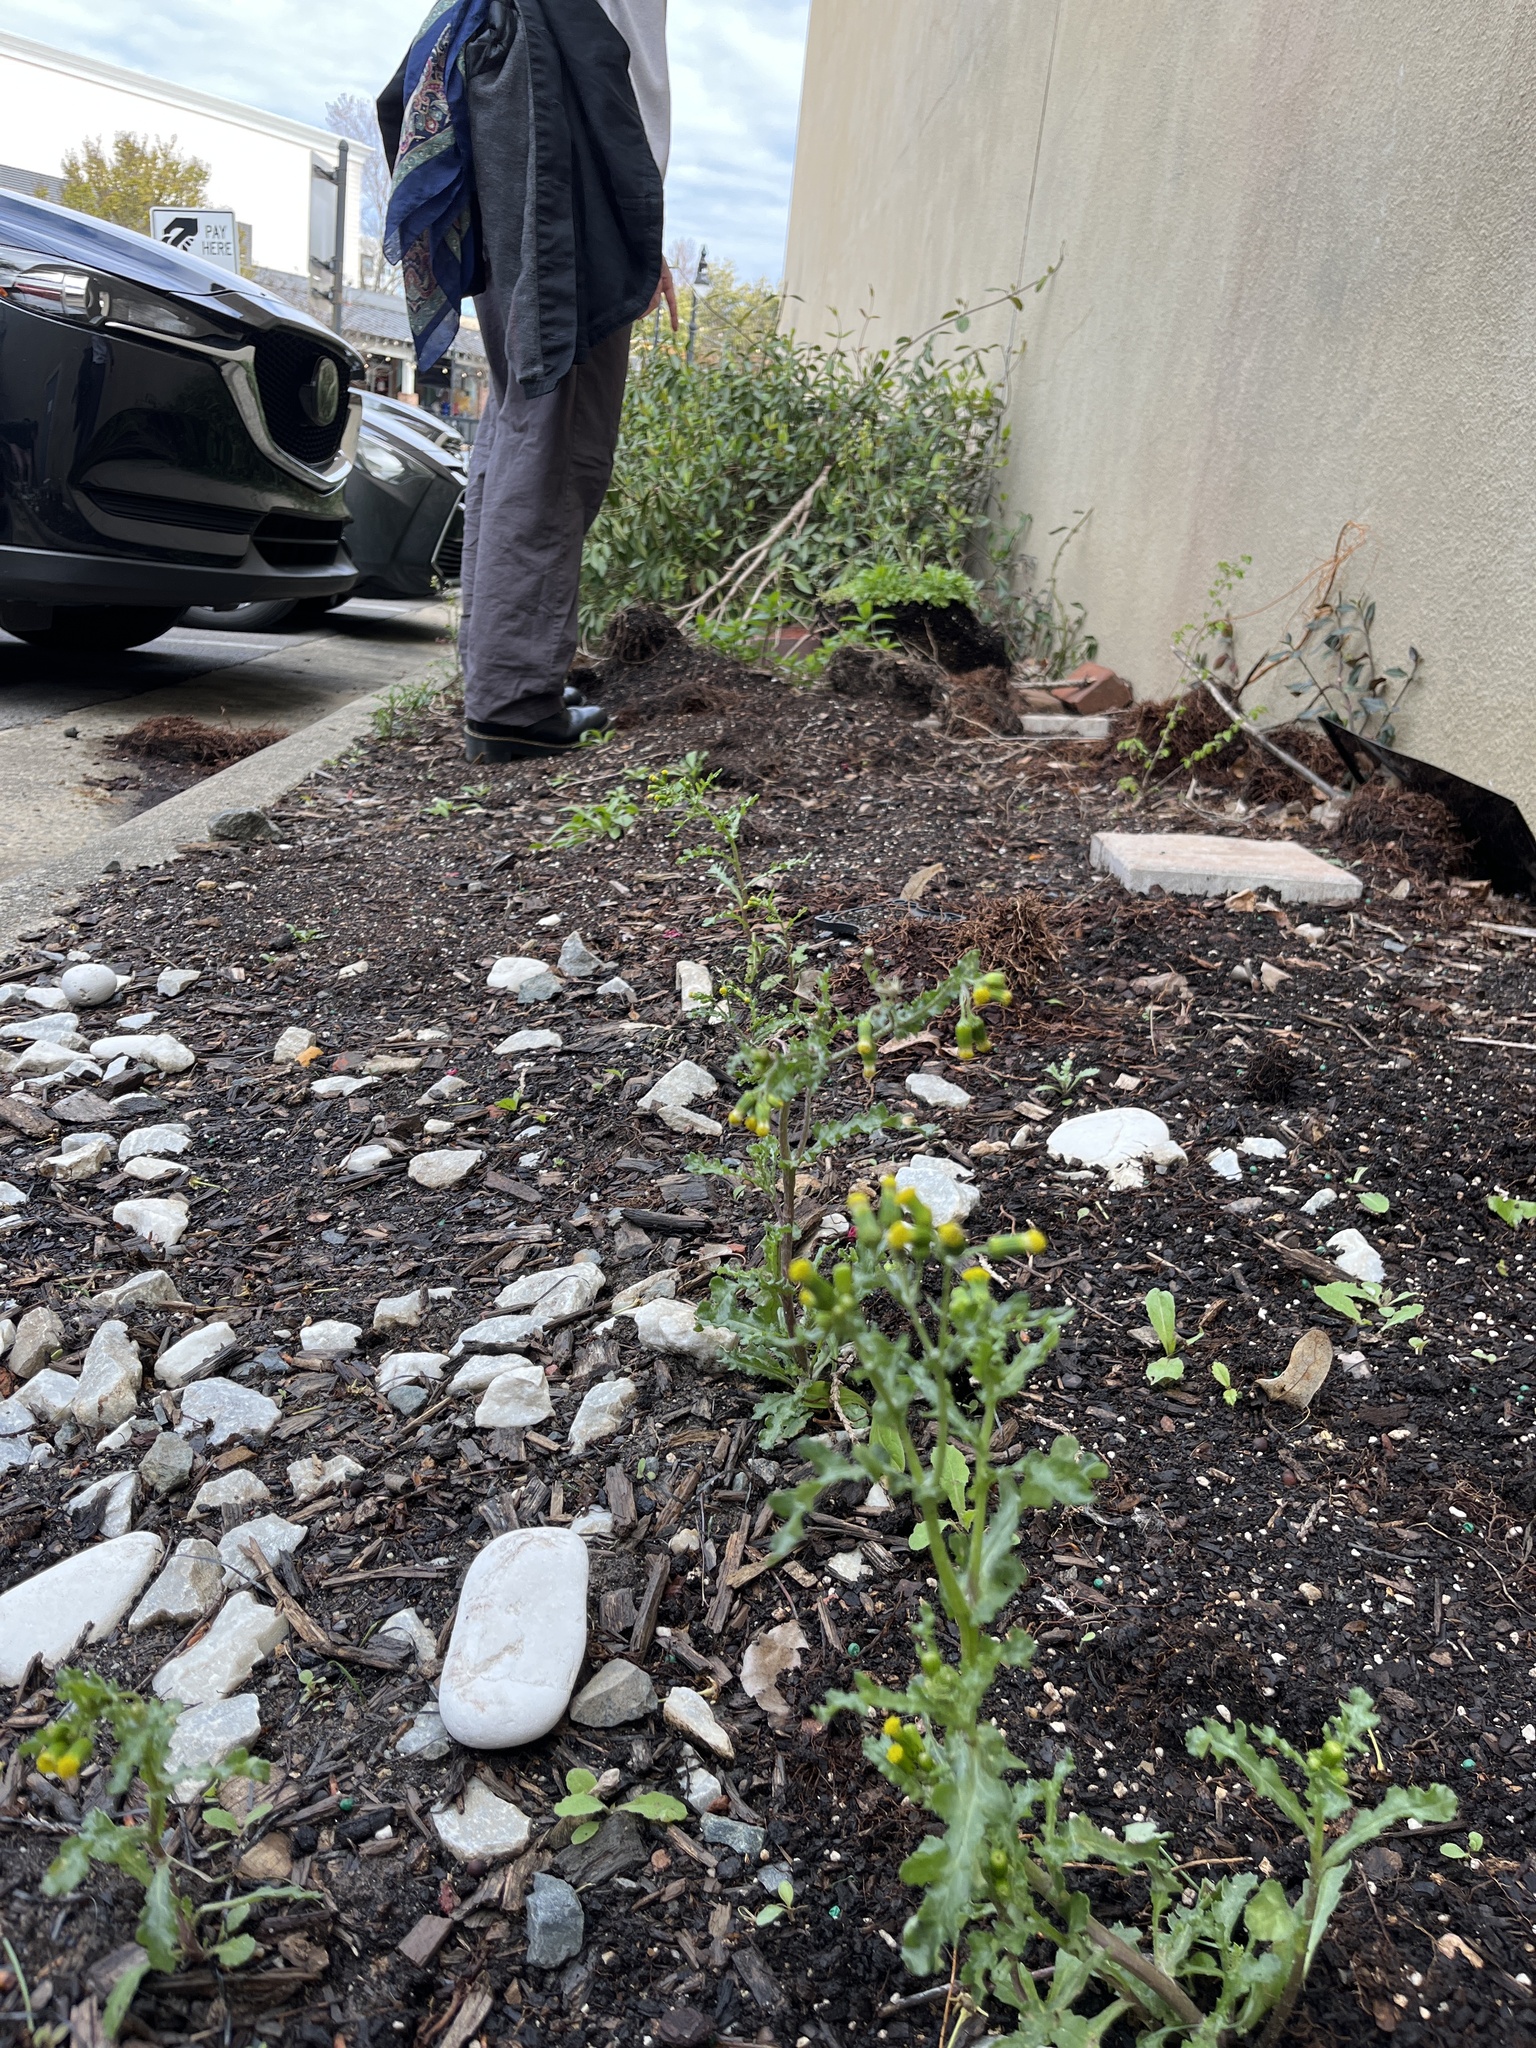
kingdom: Plantae
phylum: Tracheophyta
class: Magnoliopsida
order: Asterales
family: Asteraceae
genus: Senecio
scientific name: Senecio vulgaris
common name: Old-man-in-the-spring
